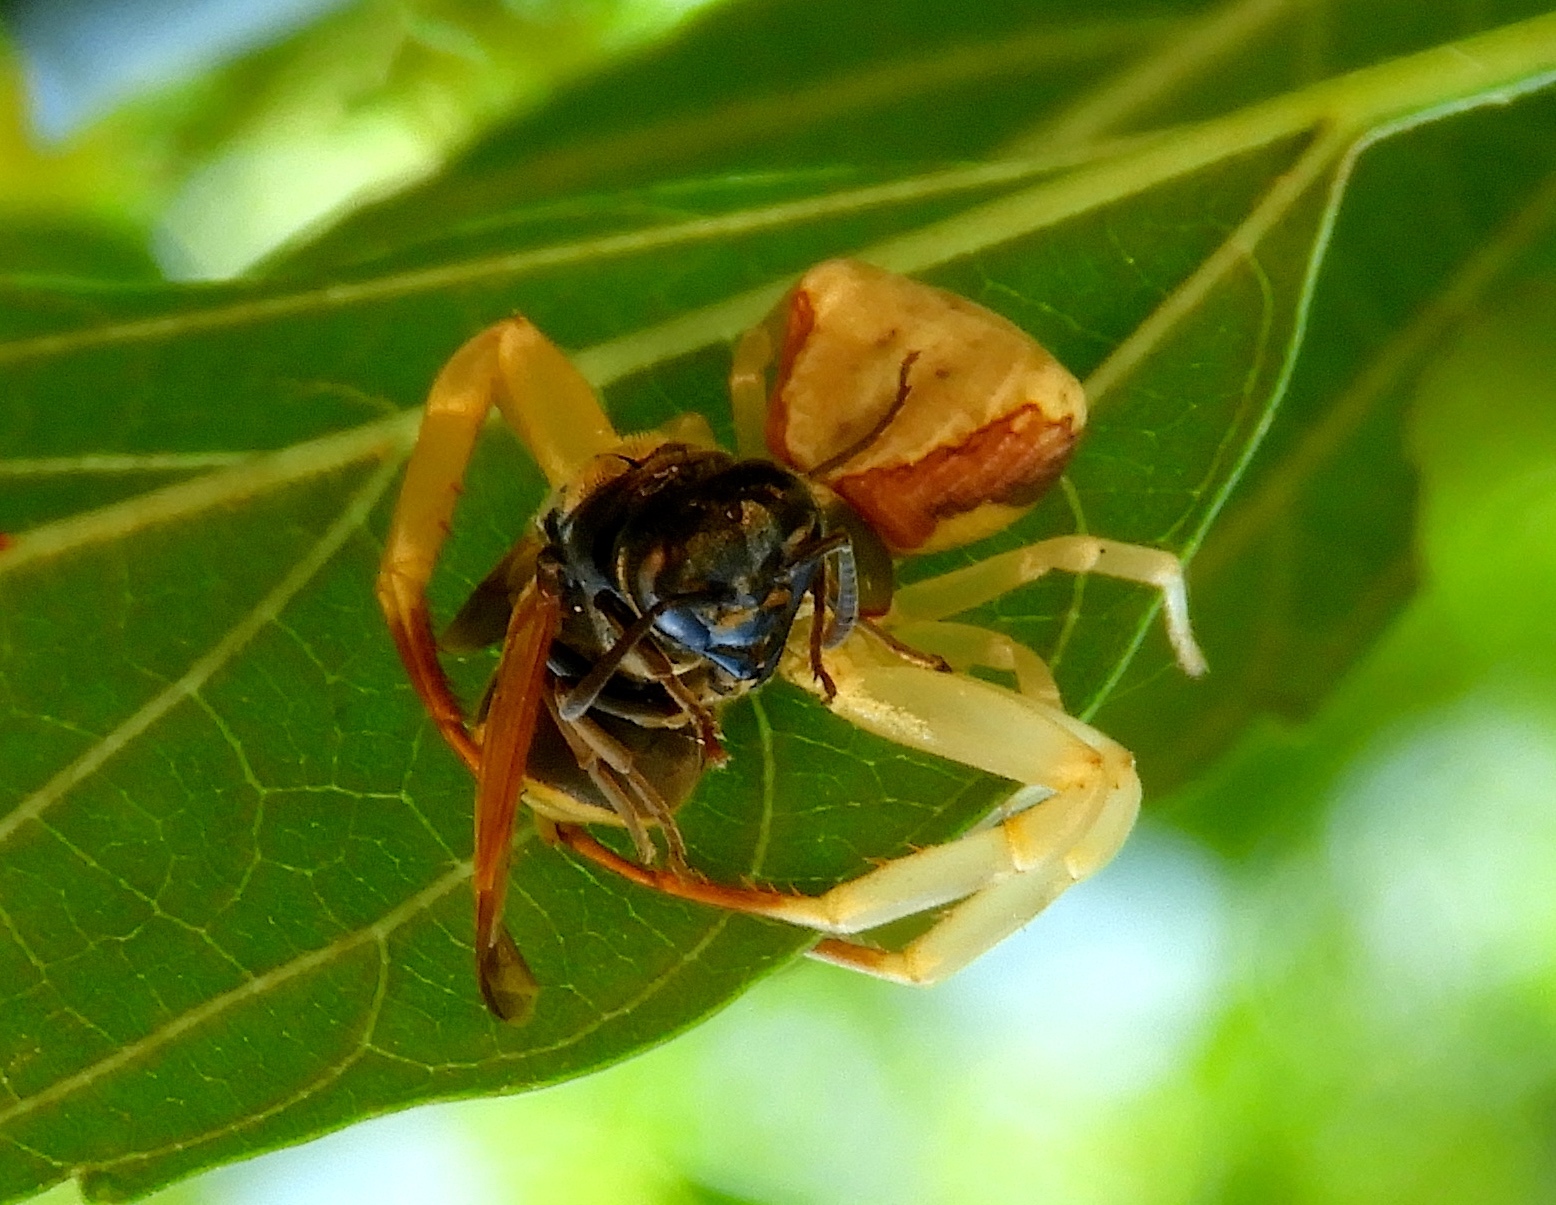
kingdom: Animalia
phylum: Arthropoda
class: Arachnida
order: Araneae
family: Thomisidae
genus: Misumenoides
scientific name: Misumenoides
